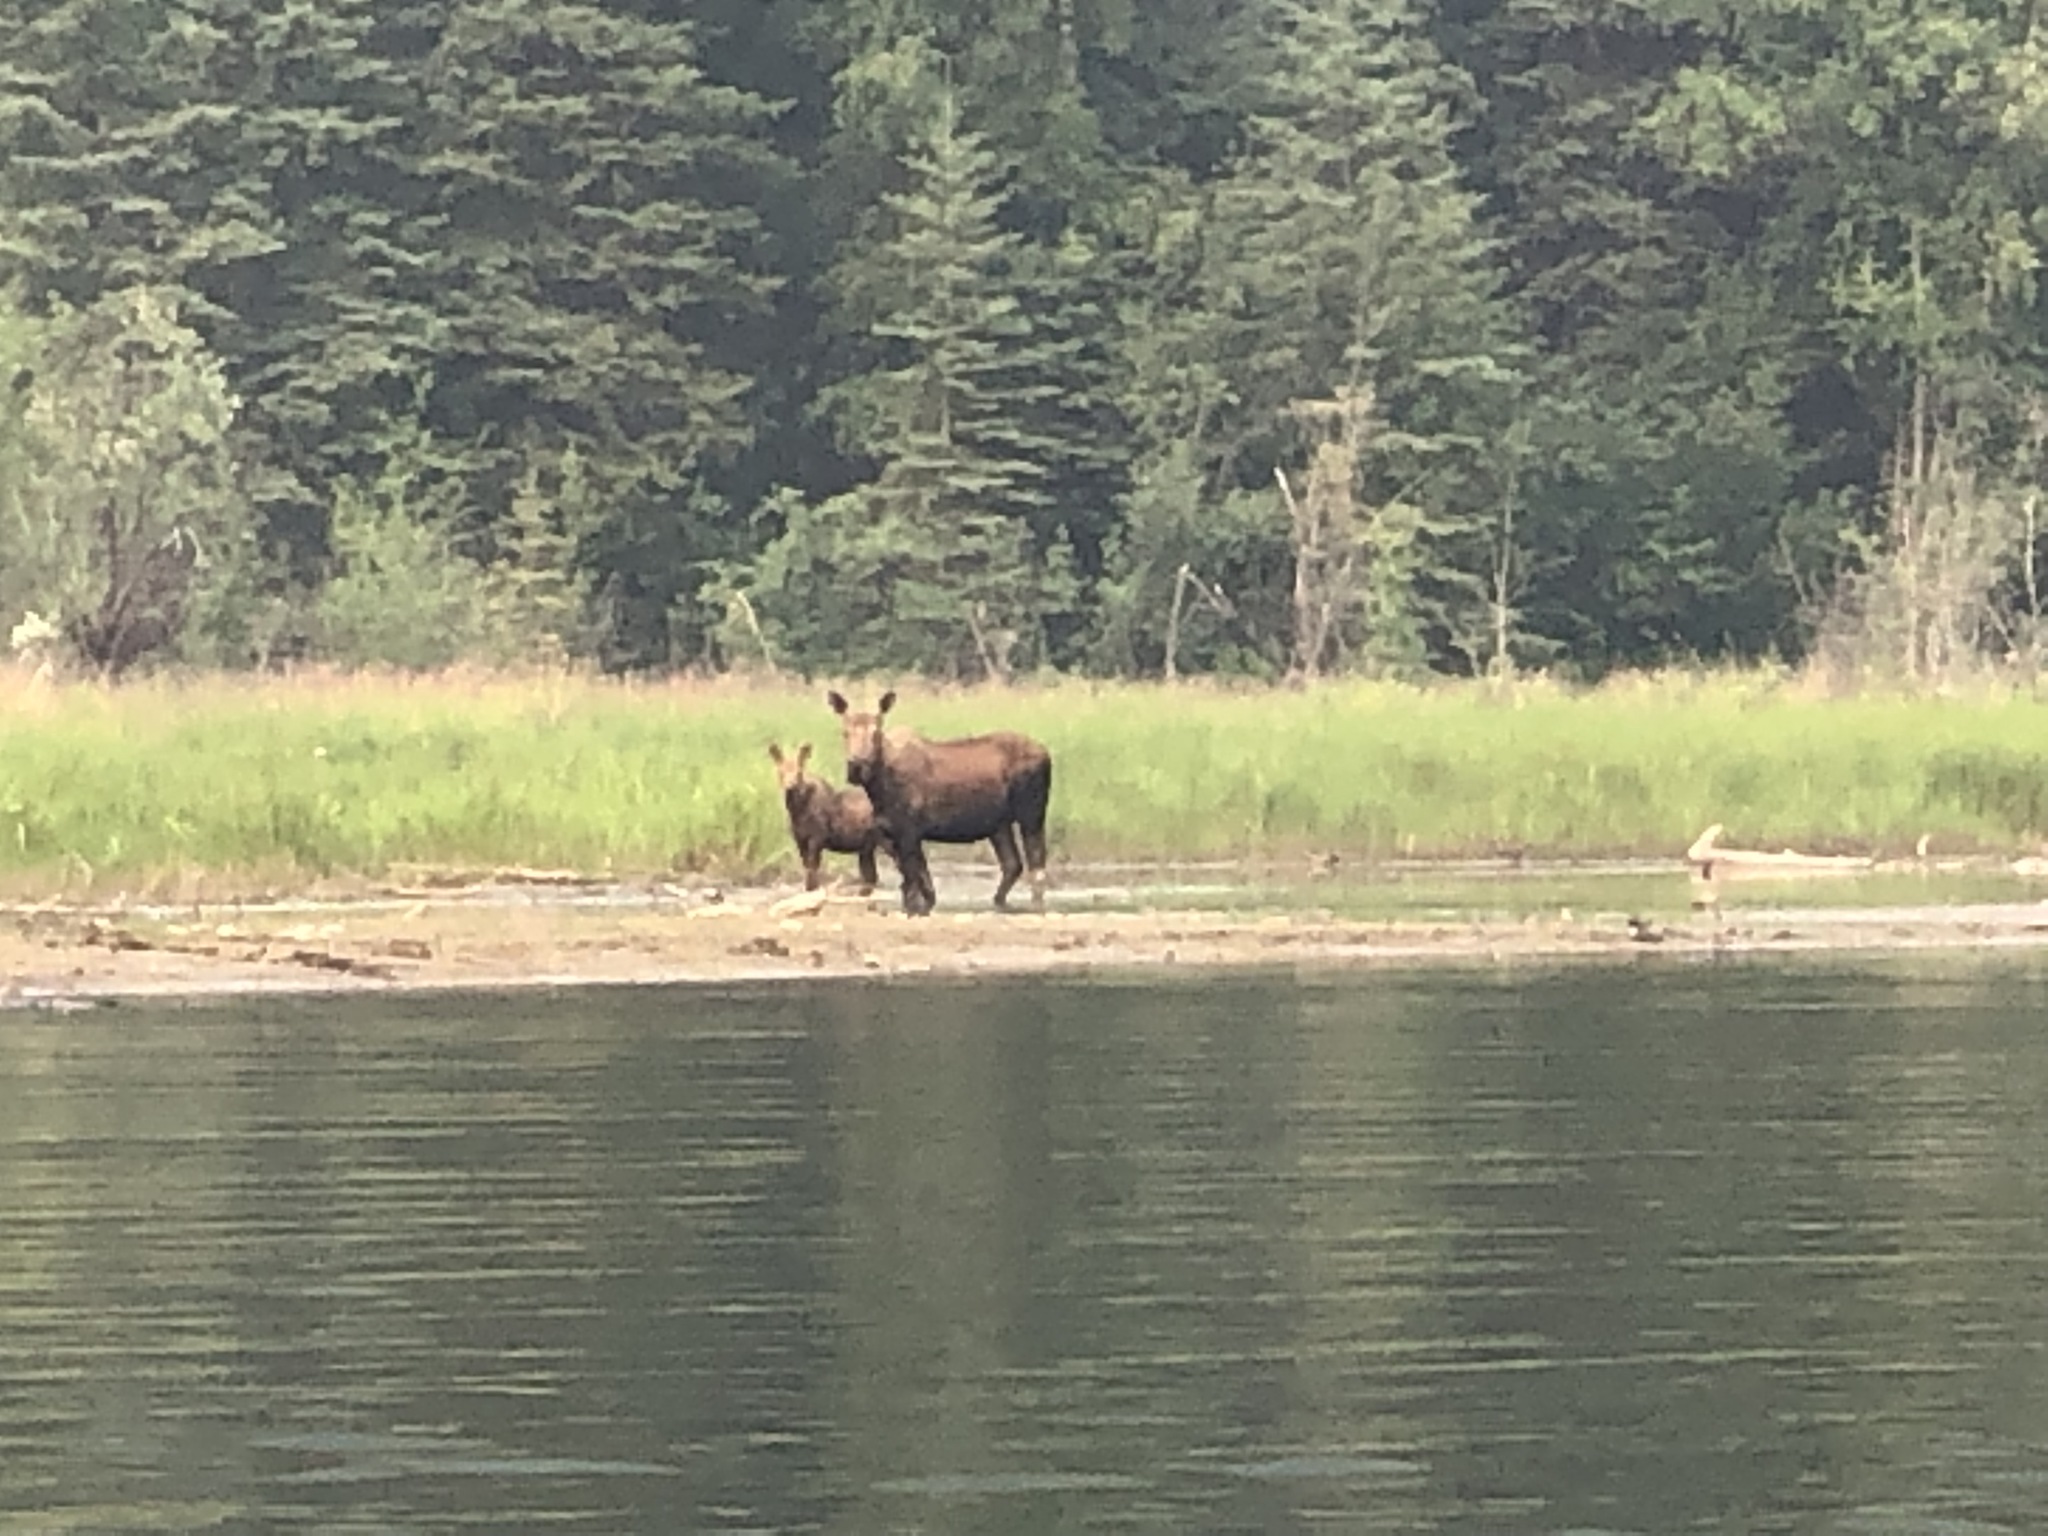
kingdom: Animalia
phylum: Chordata
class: Mammalia
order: Artiodactyla
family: Cervidae
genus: Alces
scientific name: Alces alces
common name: Moose
